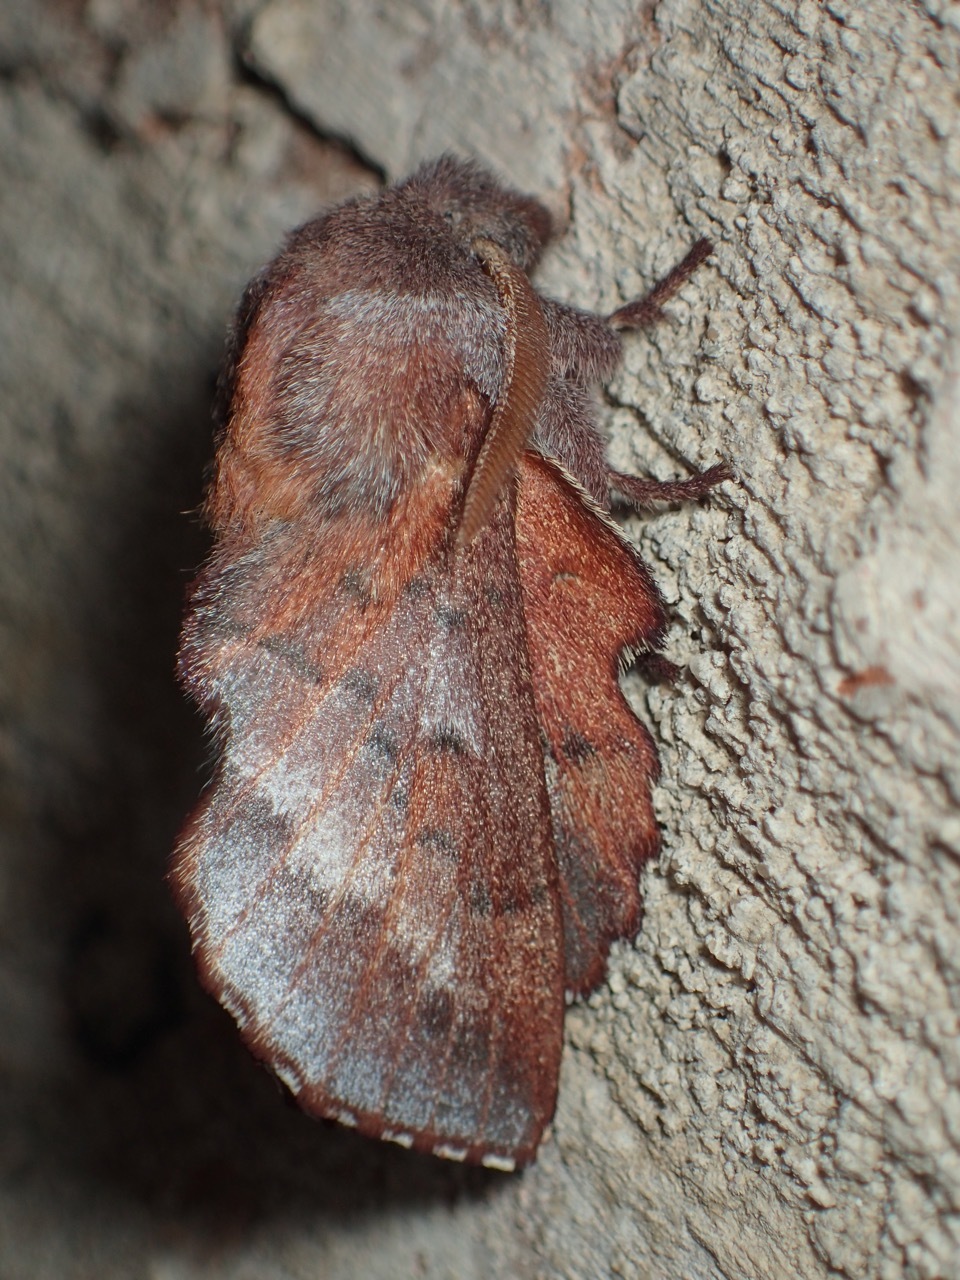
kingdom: Animalia
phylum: Arthropoda
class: Insecta
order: Lepidoptera
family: Lasiocampidae
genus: Phyllodesma
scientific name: Phyllodesma americana
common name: American lappet moth
